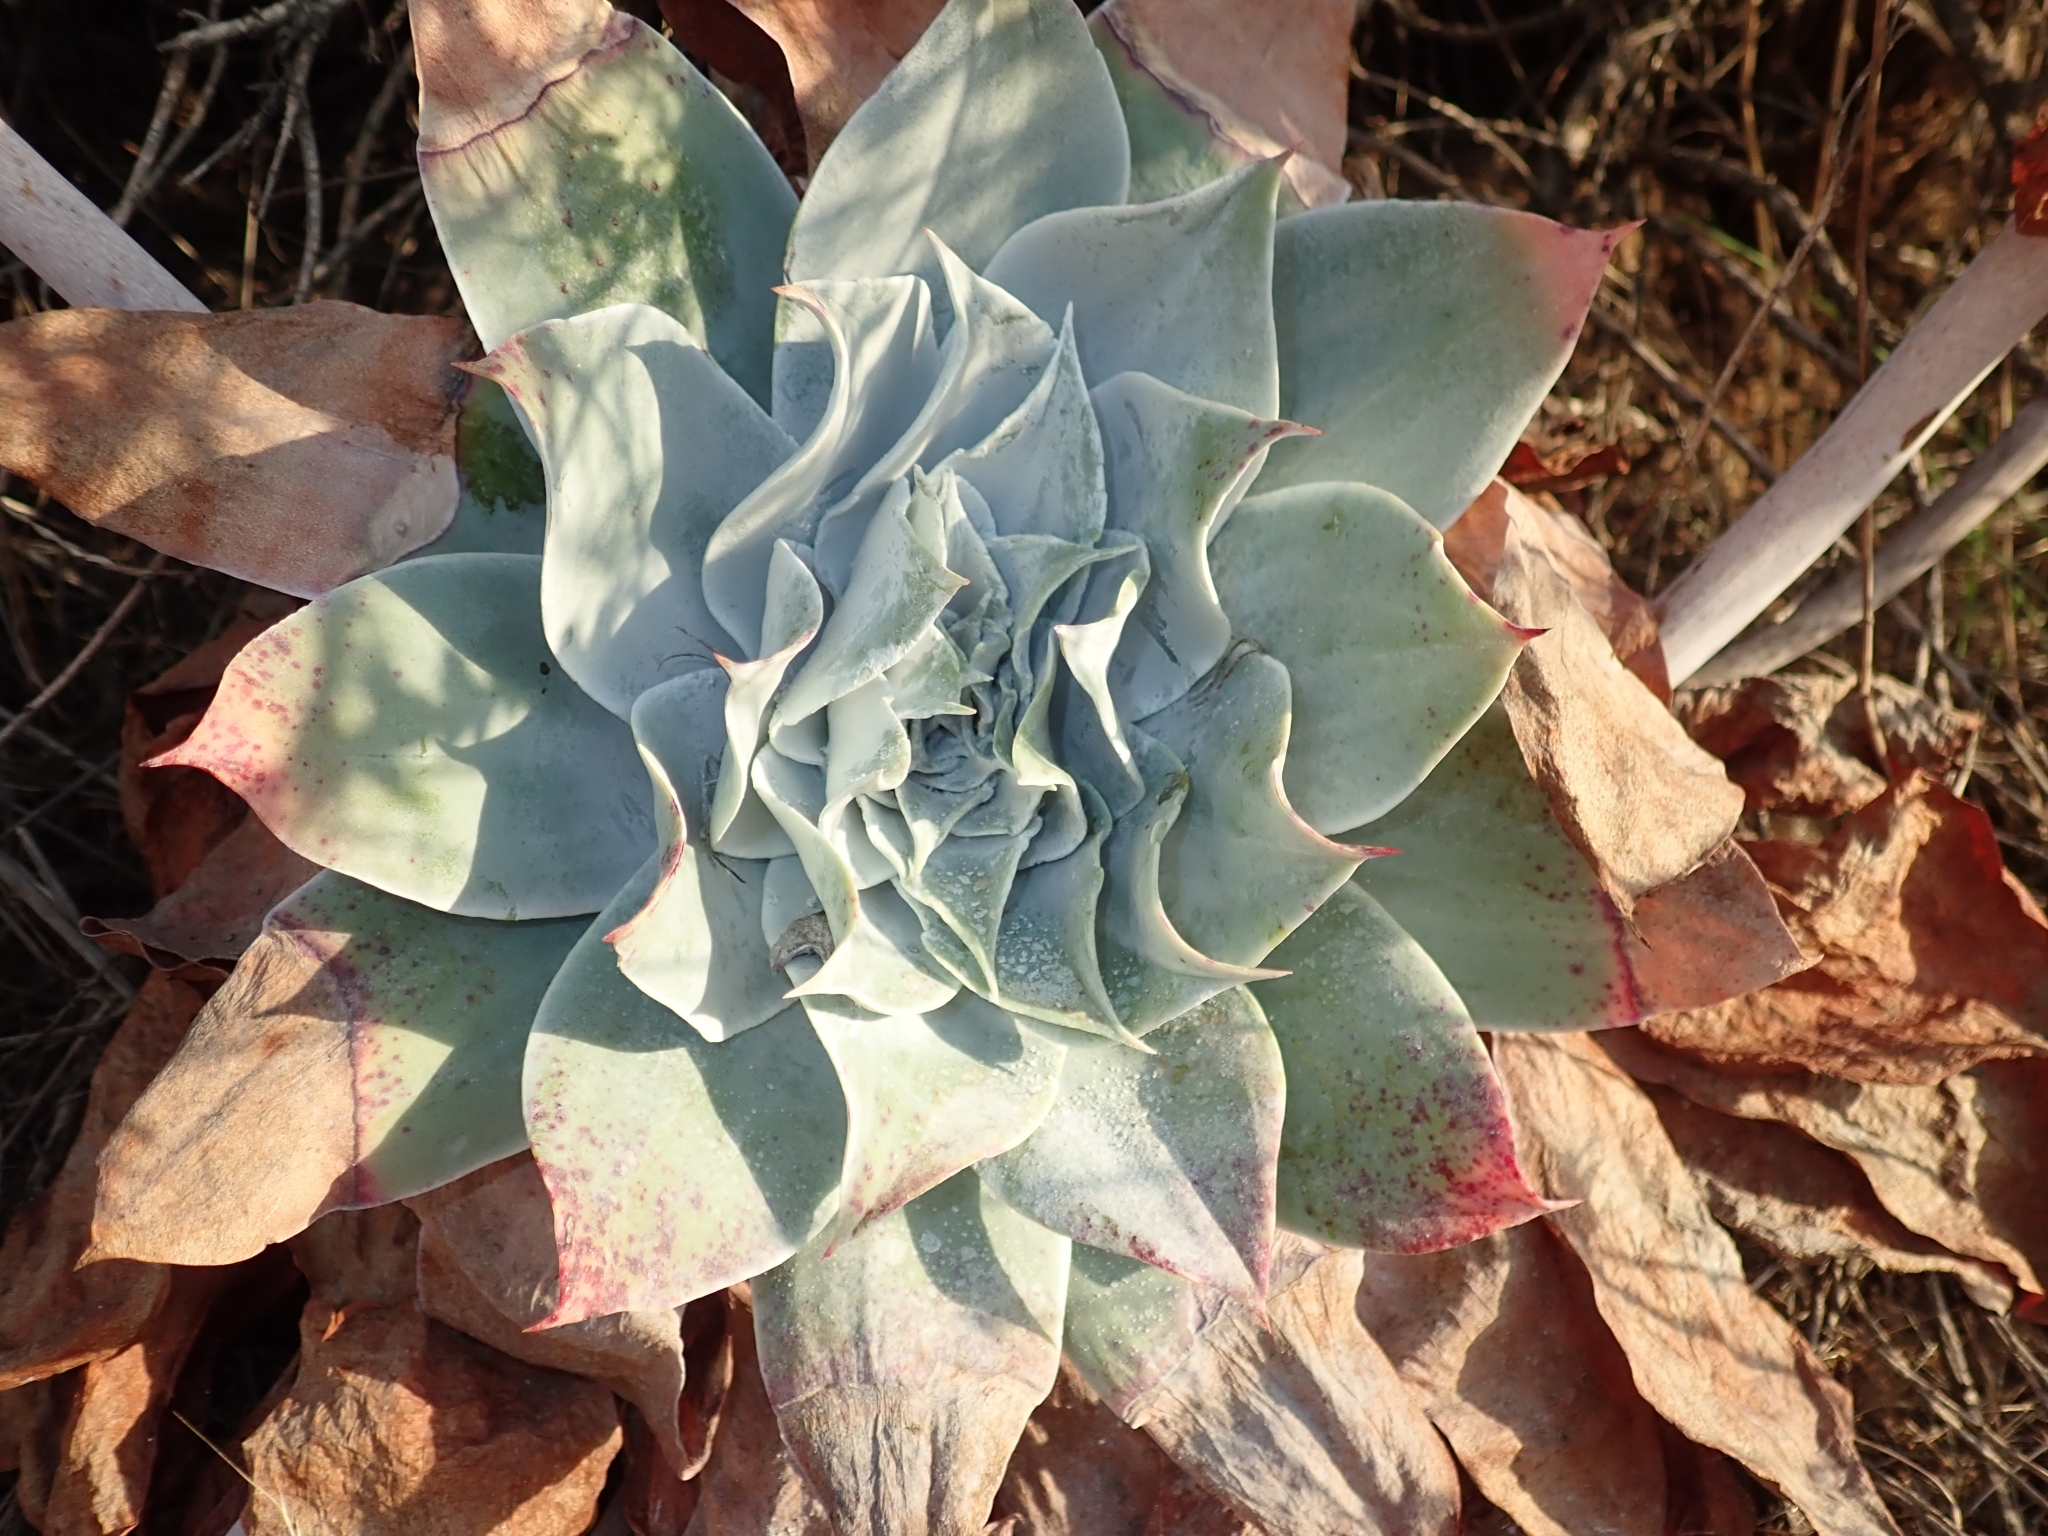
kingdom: Plantae
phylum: Tracheophyta
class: Magnoliopsida
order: Saxifragales
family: Crassulaceae
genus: Dudleya
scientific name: Dudleya pulverulenta
